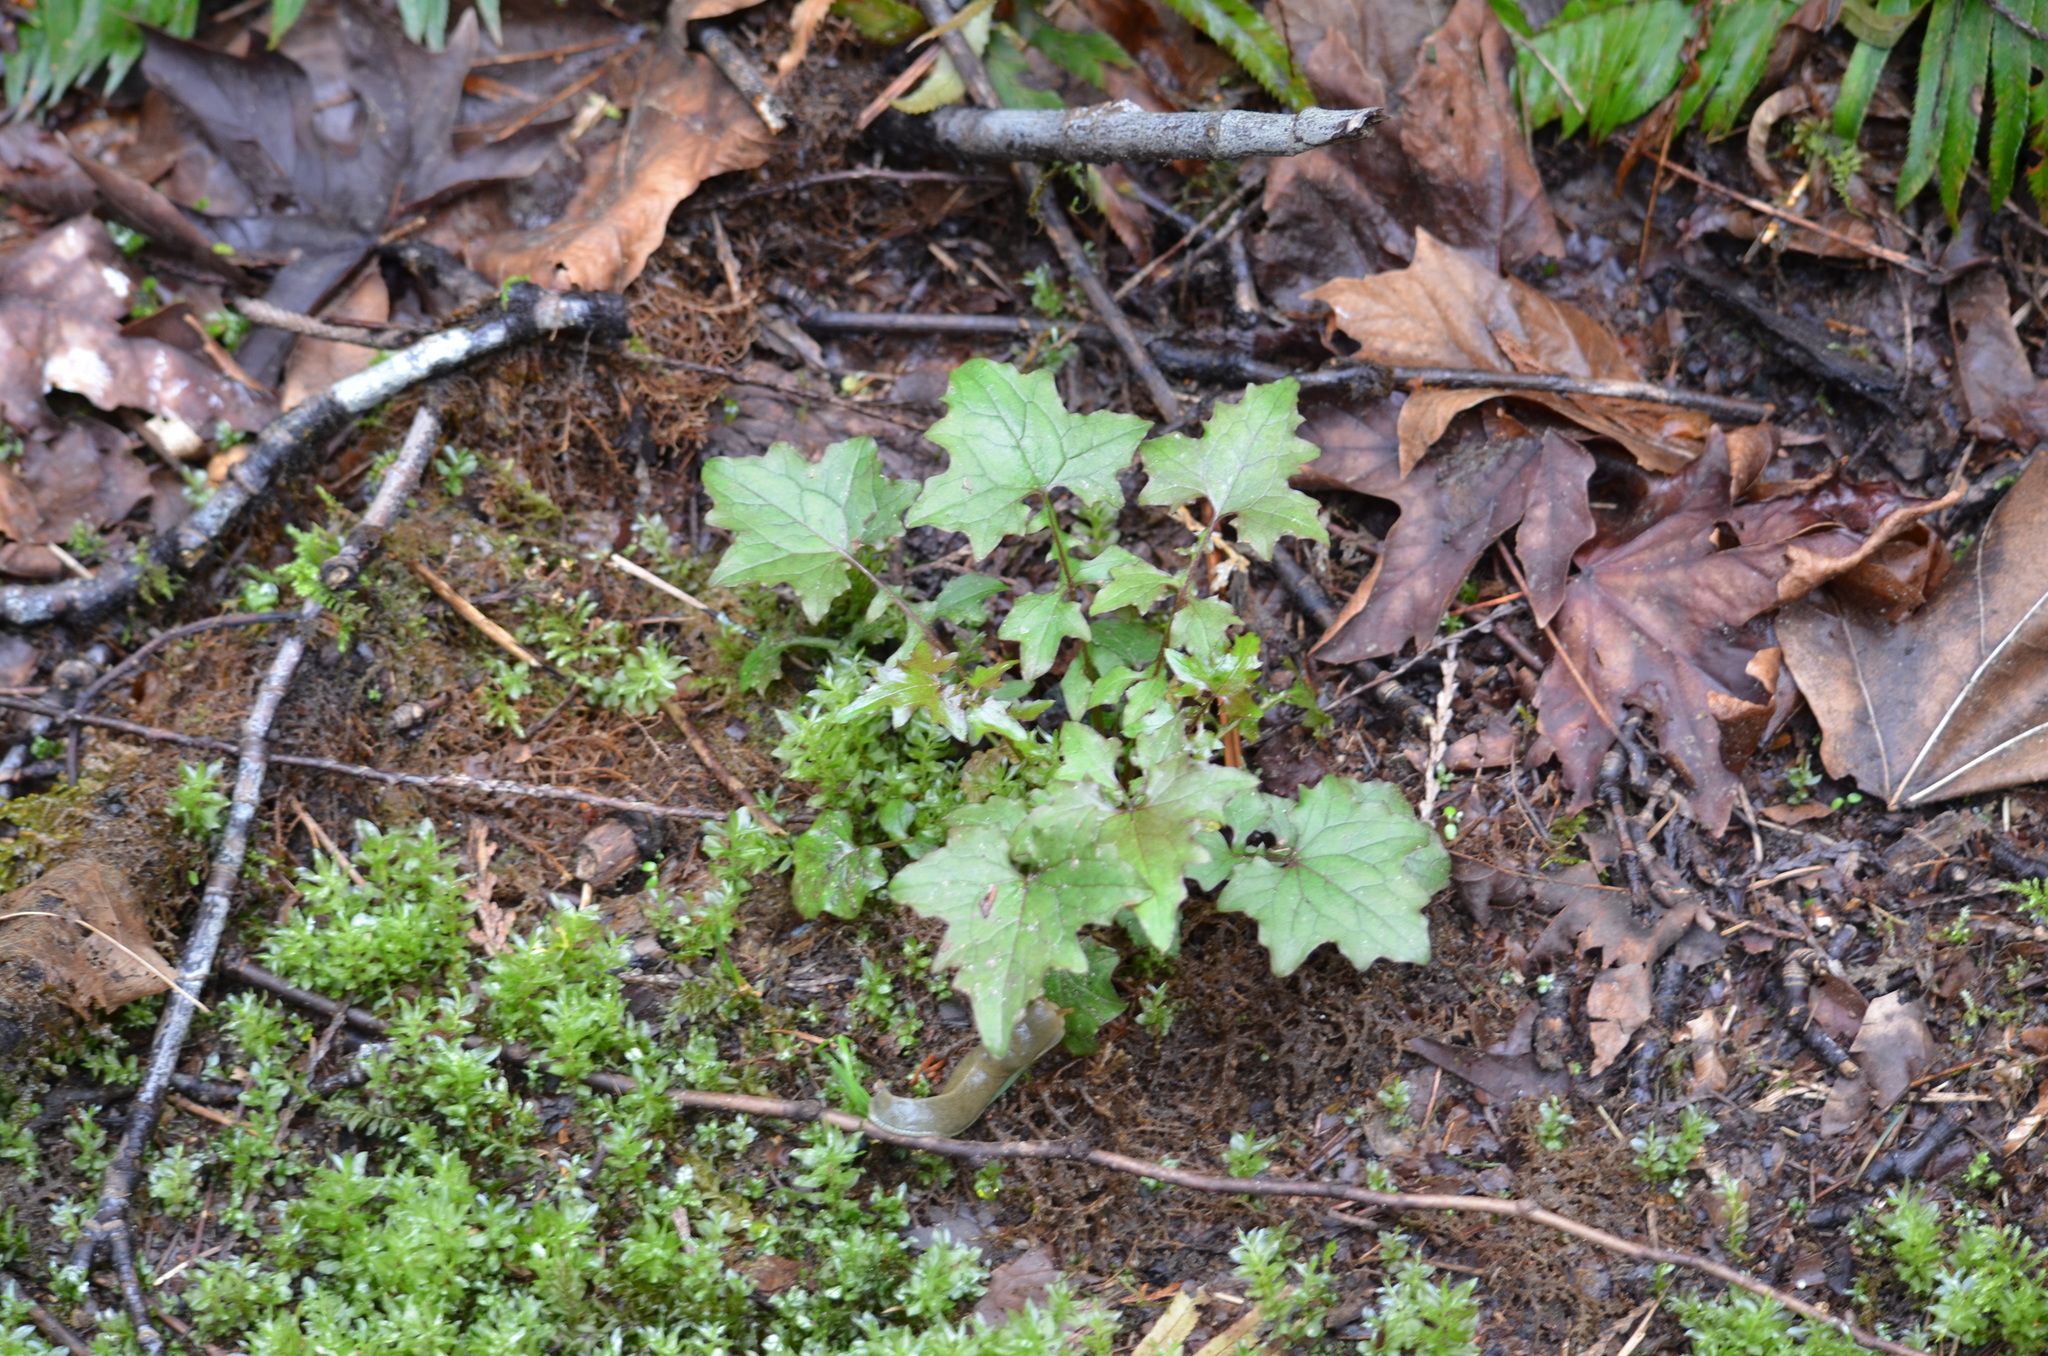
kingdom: Plantae
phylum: Tracheophyta
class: Magnoliopsida
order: Asterales
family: Asteraceae
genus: Mycelis
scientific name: Mycelis muralis
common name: Wall lettuce
